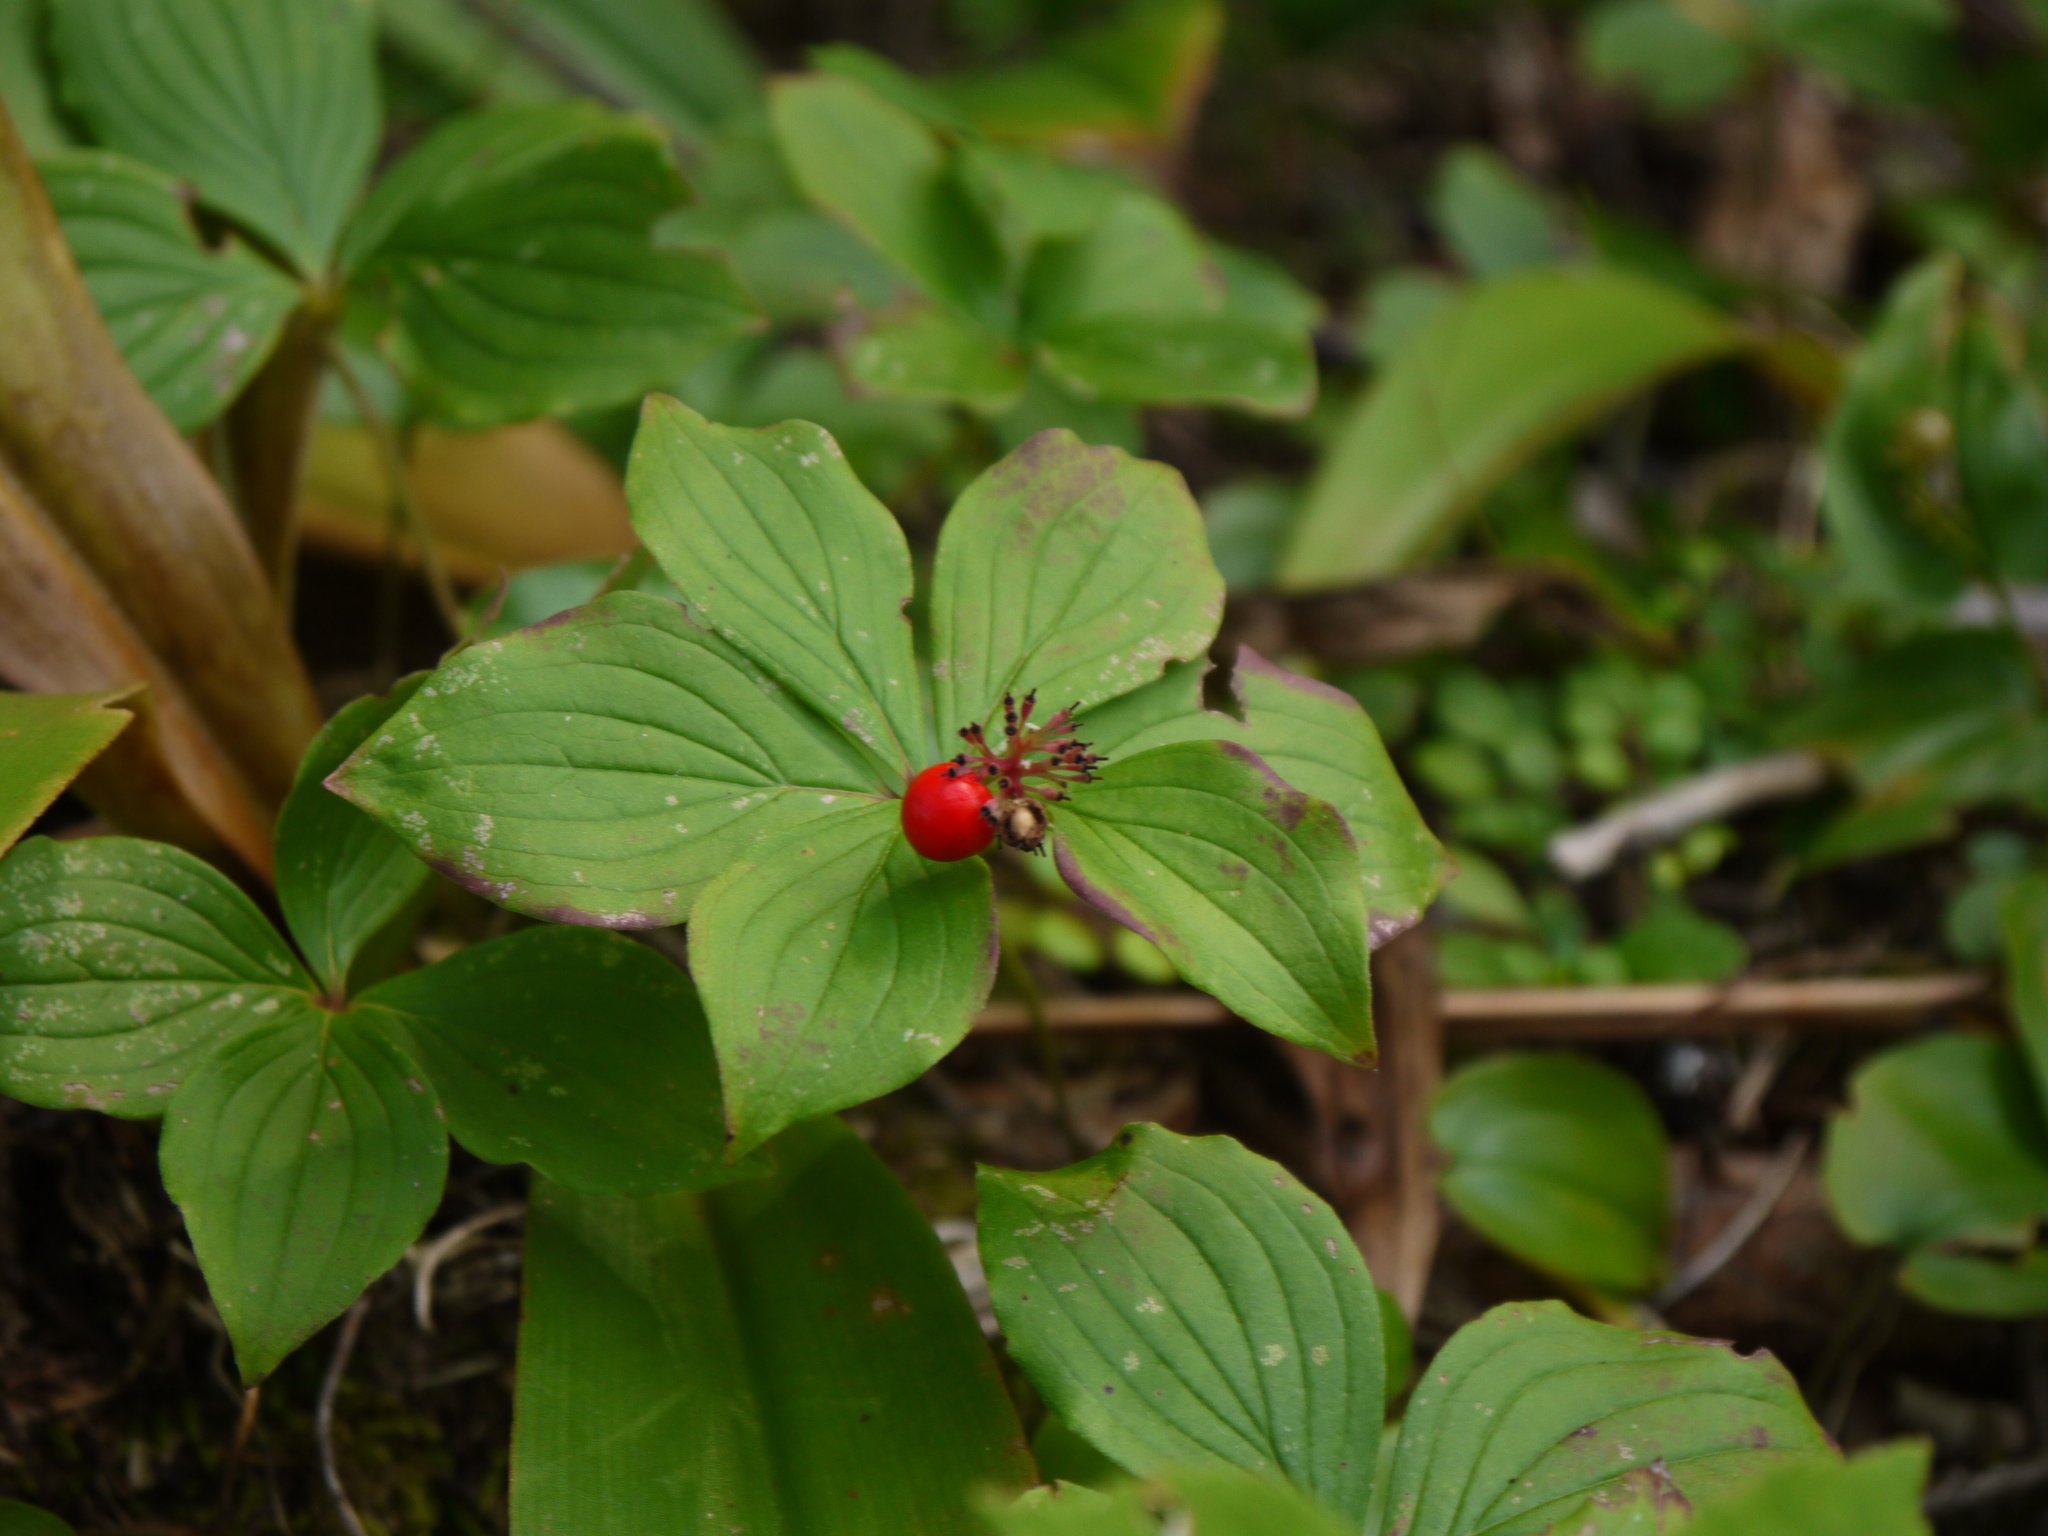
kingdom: Plantae
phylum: Tracheophyta
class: Magnoliopsida
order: Cornales
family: Cornaceae
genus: Cornus
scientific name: Cornus canadensis
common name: Creeping dogwood
